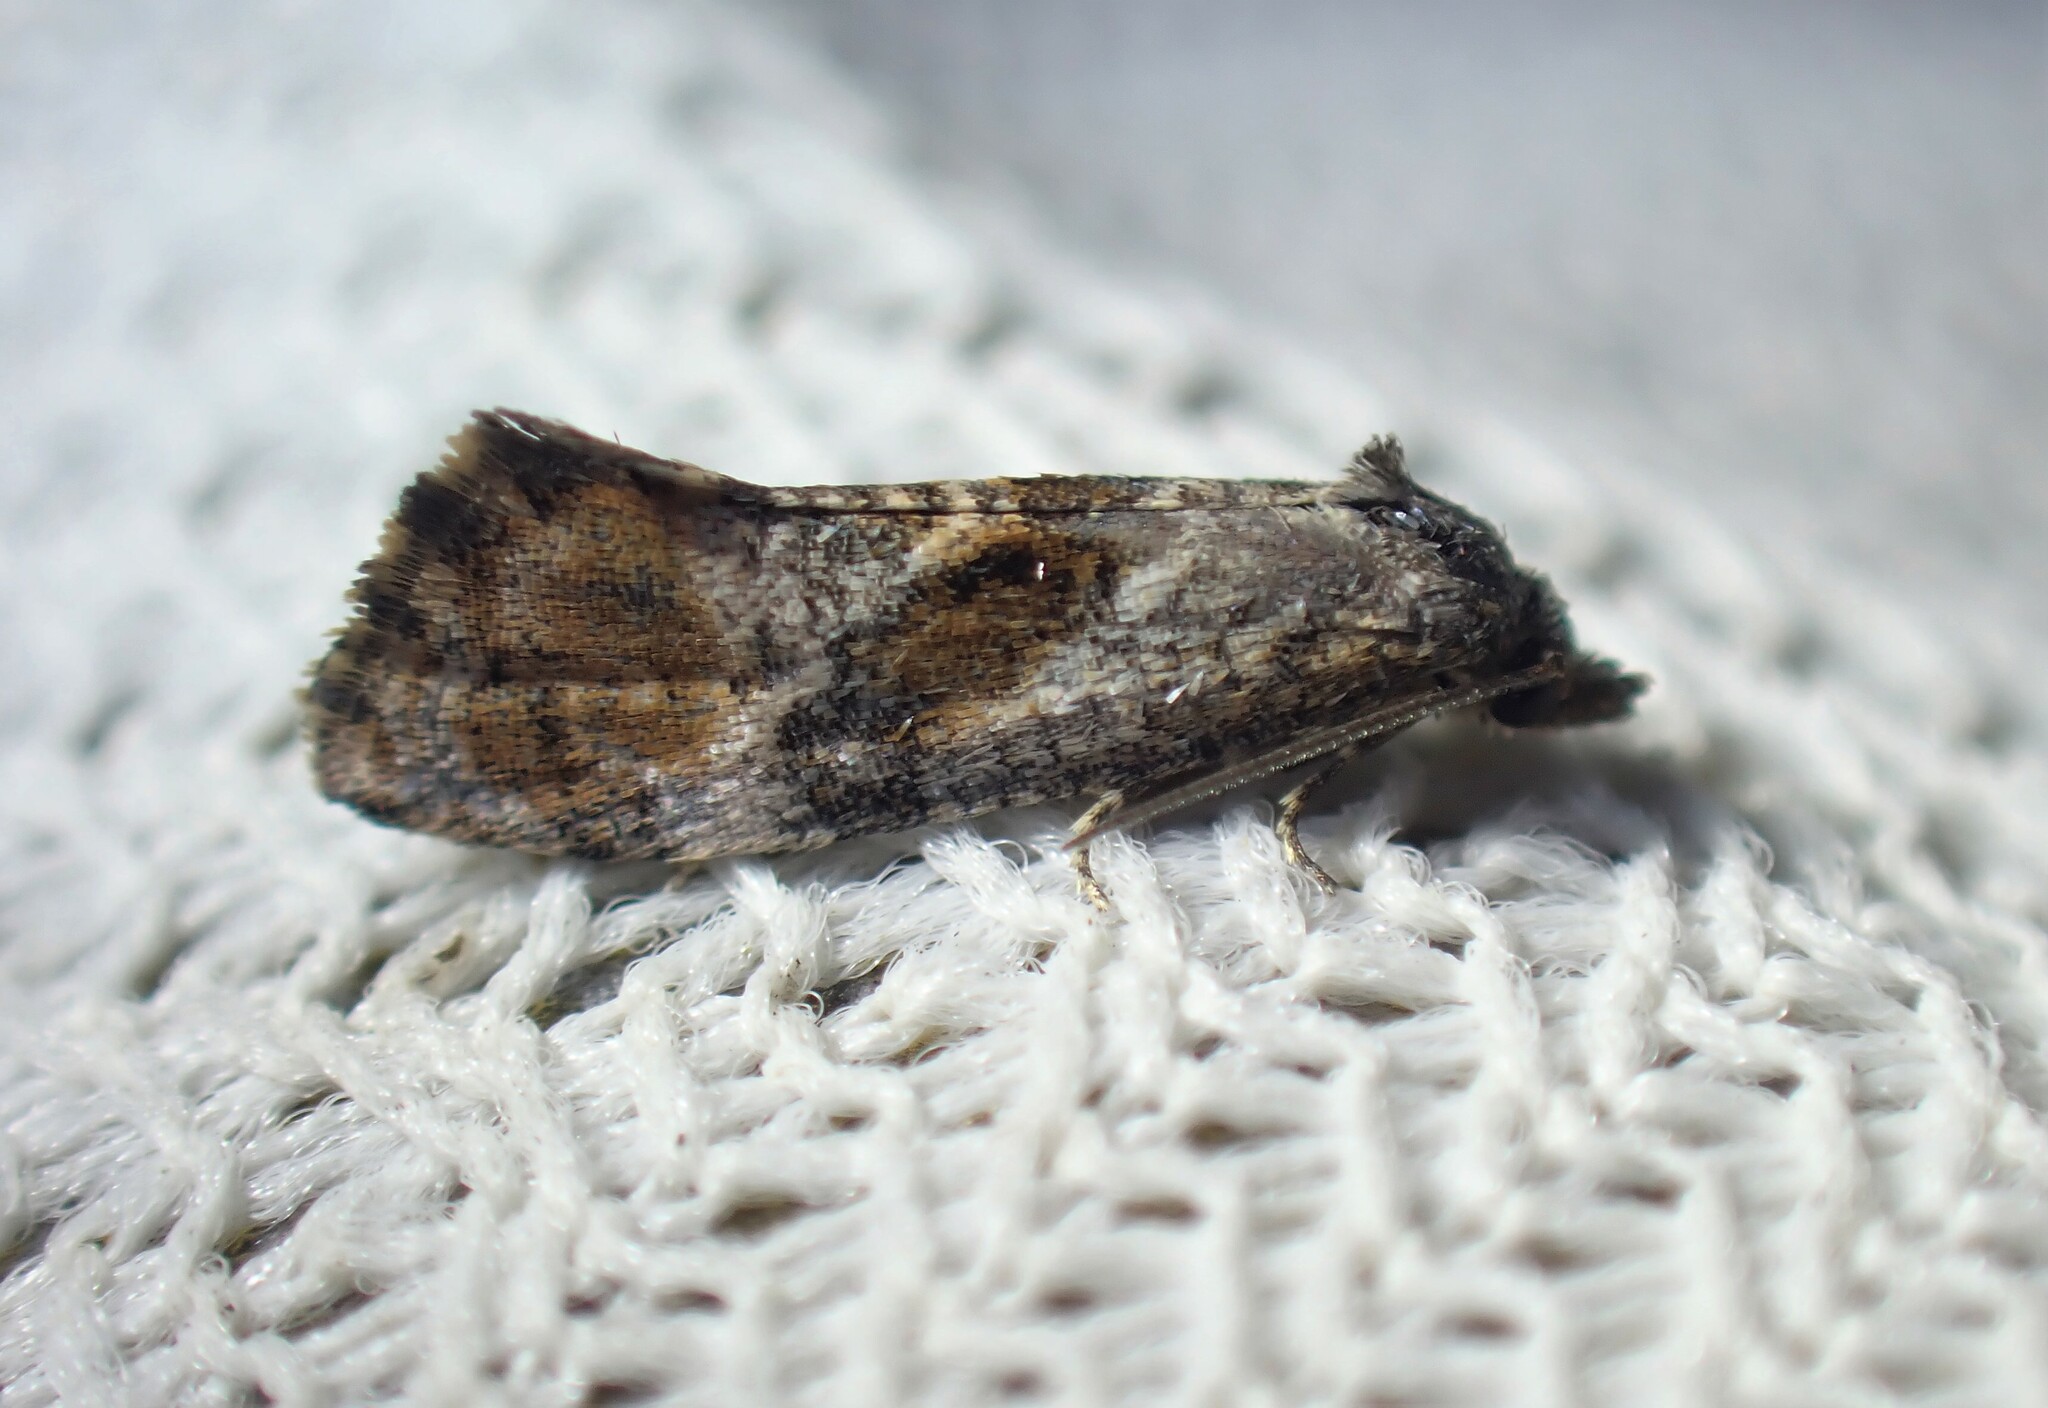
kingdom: Animalia
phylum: Arthropoda
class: Insecta
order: Lepidoptera
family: Tortricidae
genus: Cochylis
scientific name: Cochylis Cochylichroa temerana
